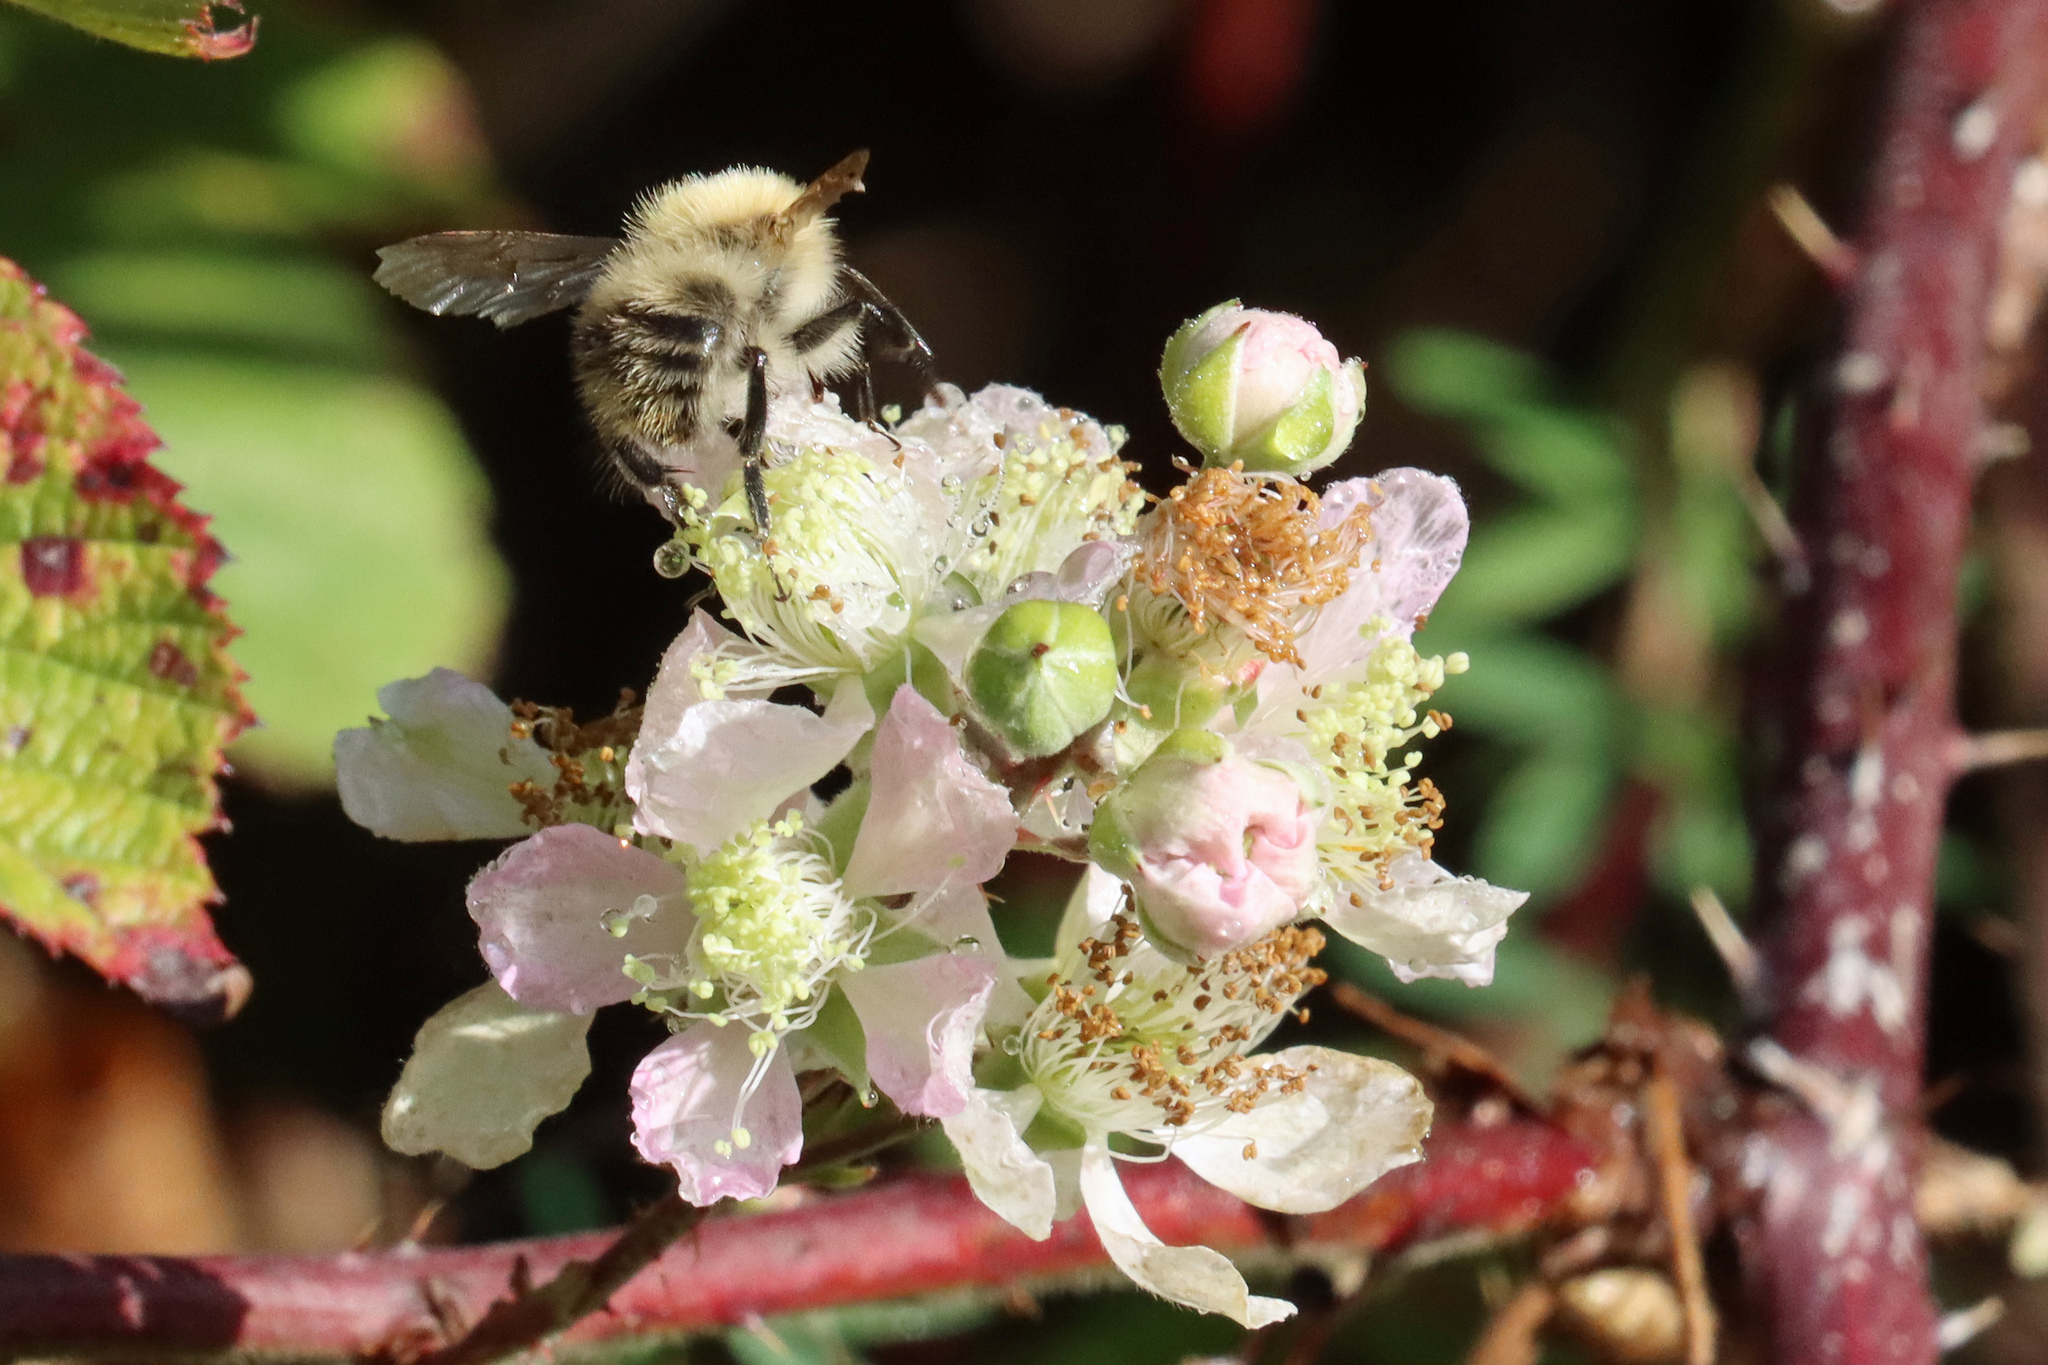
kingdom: Animalia
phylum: Arthropoda
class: Insecta
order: Hymenoptera
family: Apidae
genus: Bombus
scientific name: Bombus pascuorum
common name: Common carder bee
